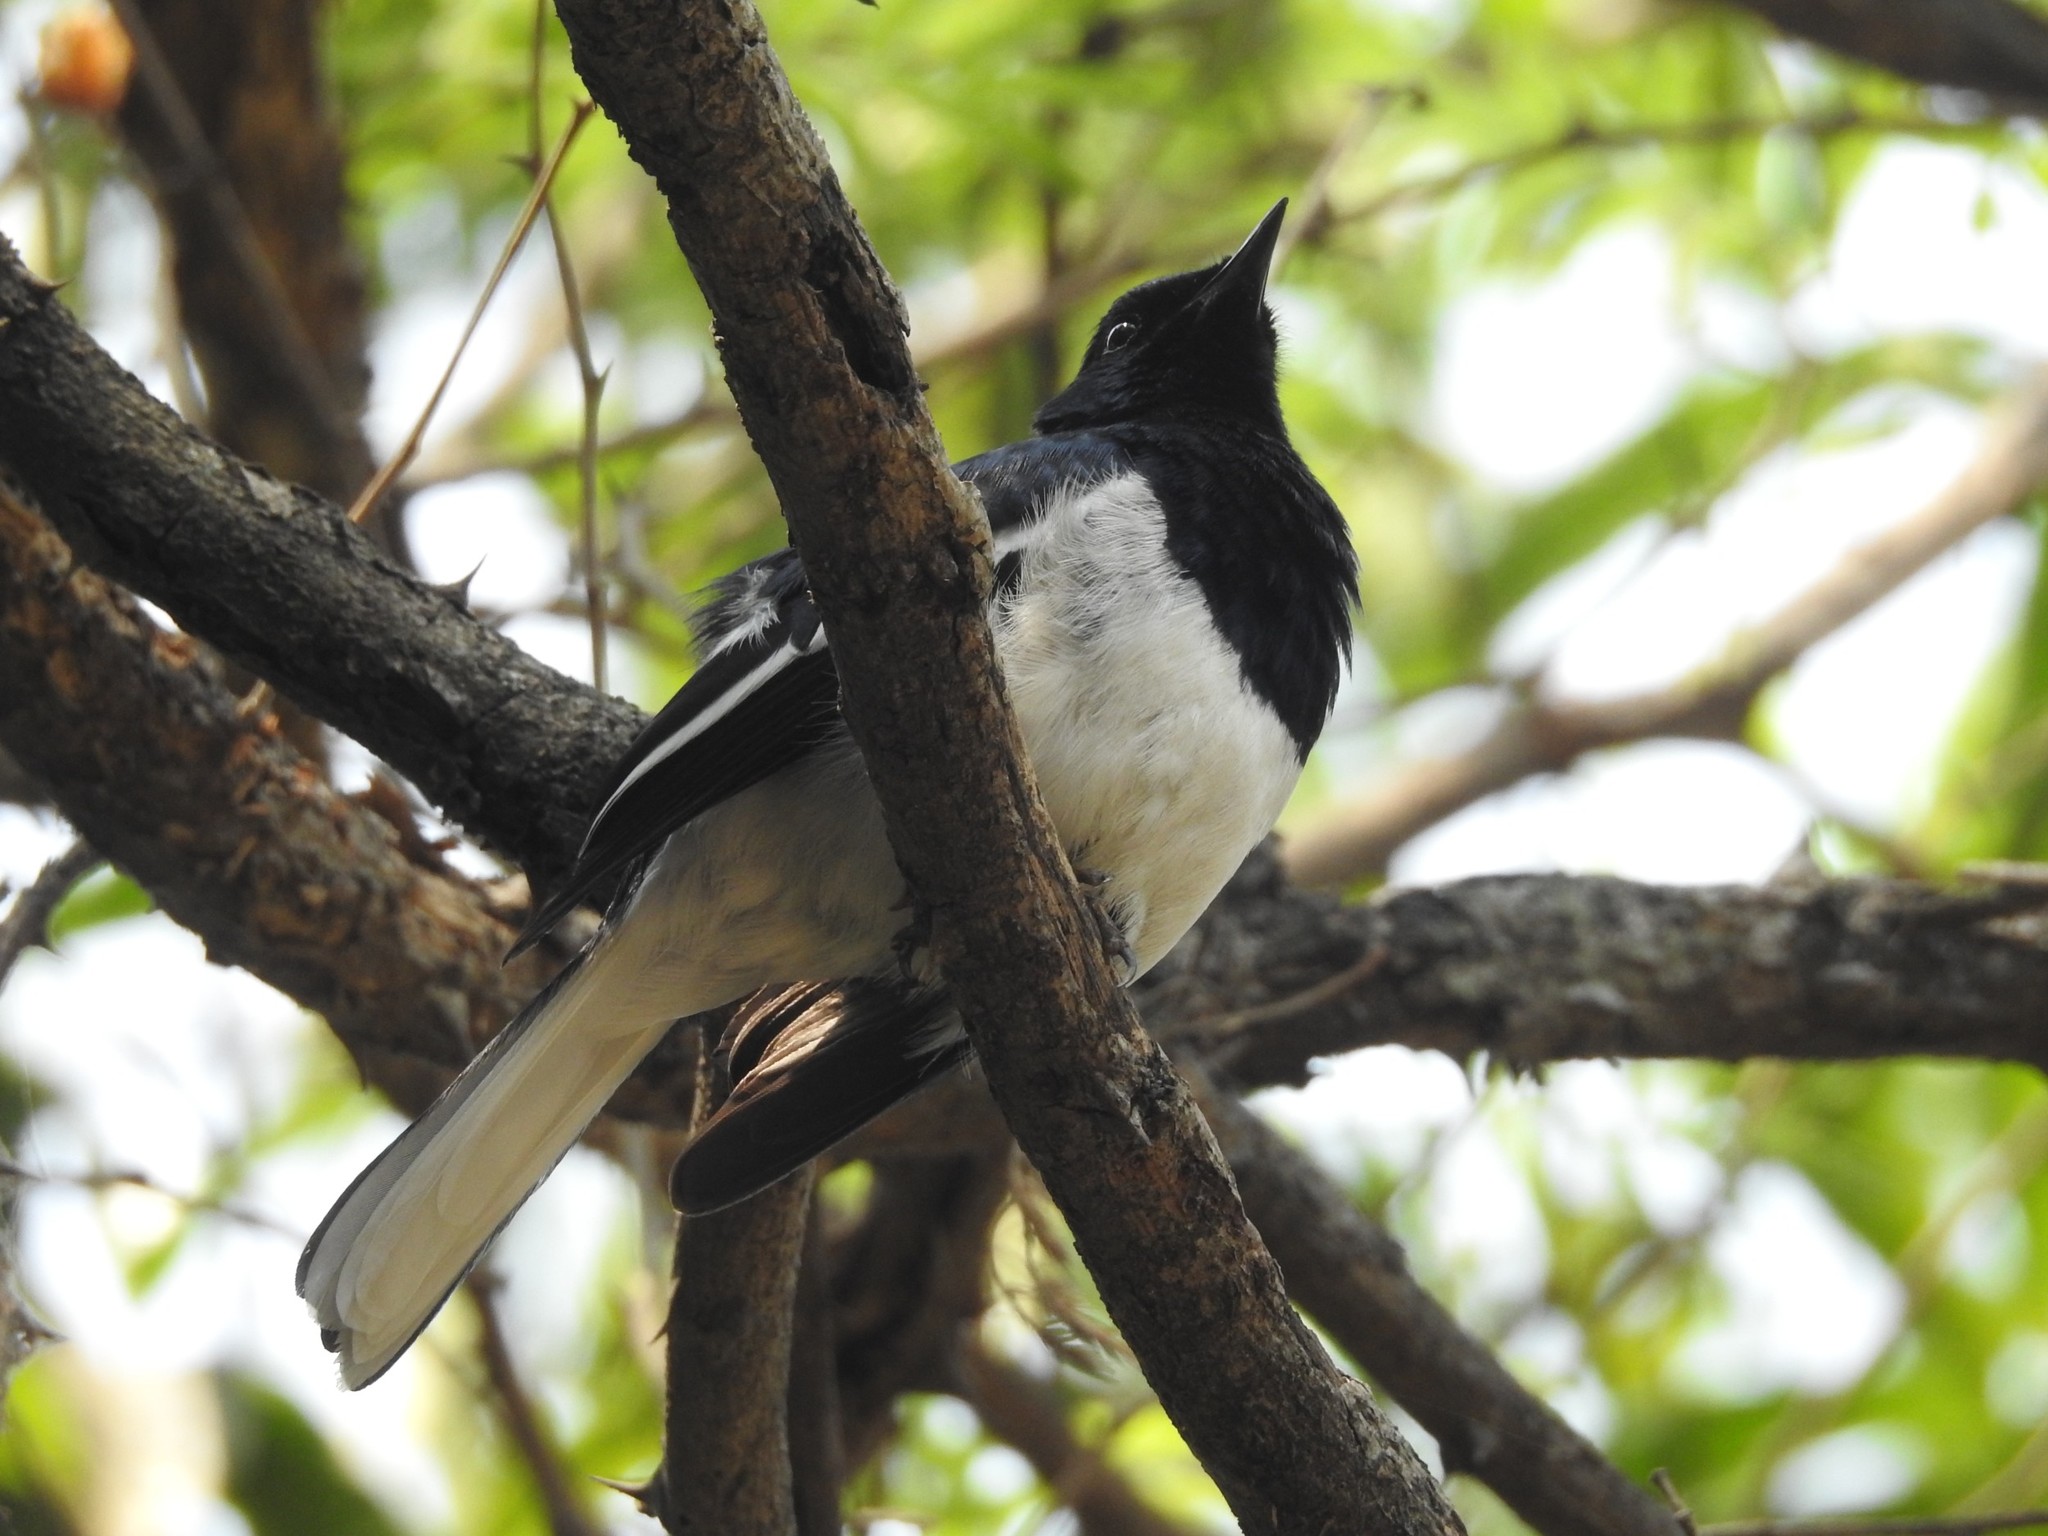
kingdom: Animalia
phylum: Chordata
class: Aves
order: Passeriformes
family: Muscicapidae
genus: Copsychus
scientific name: Copsychus saularis
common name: Oriental magpie-robin
